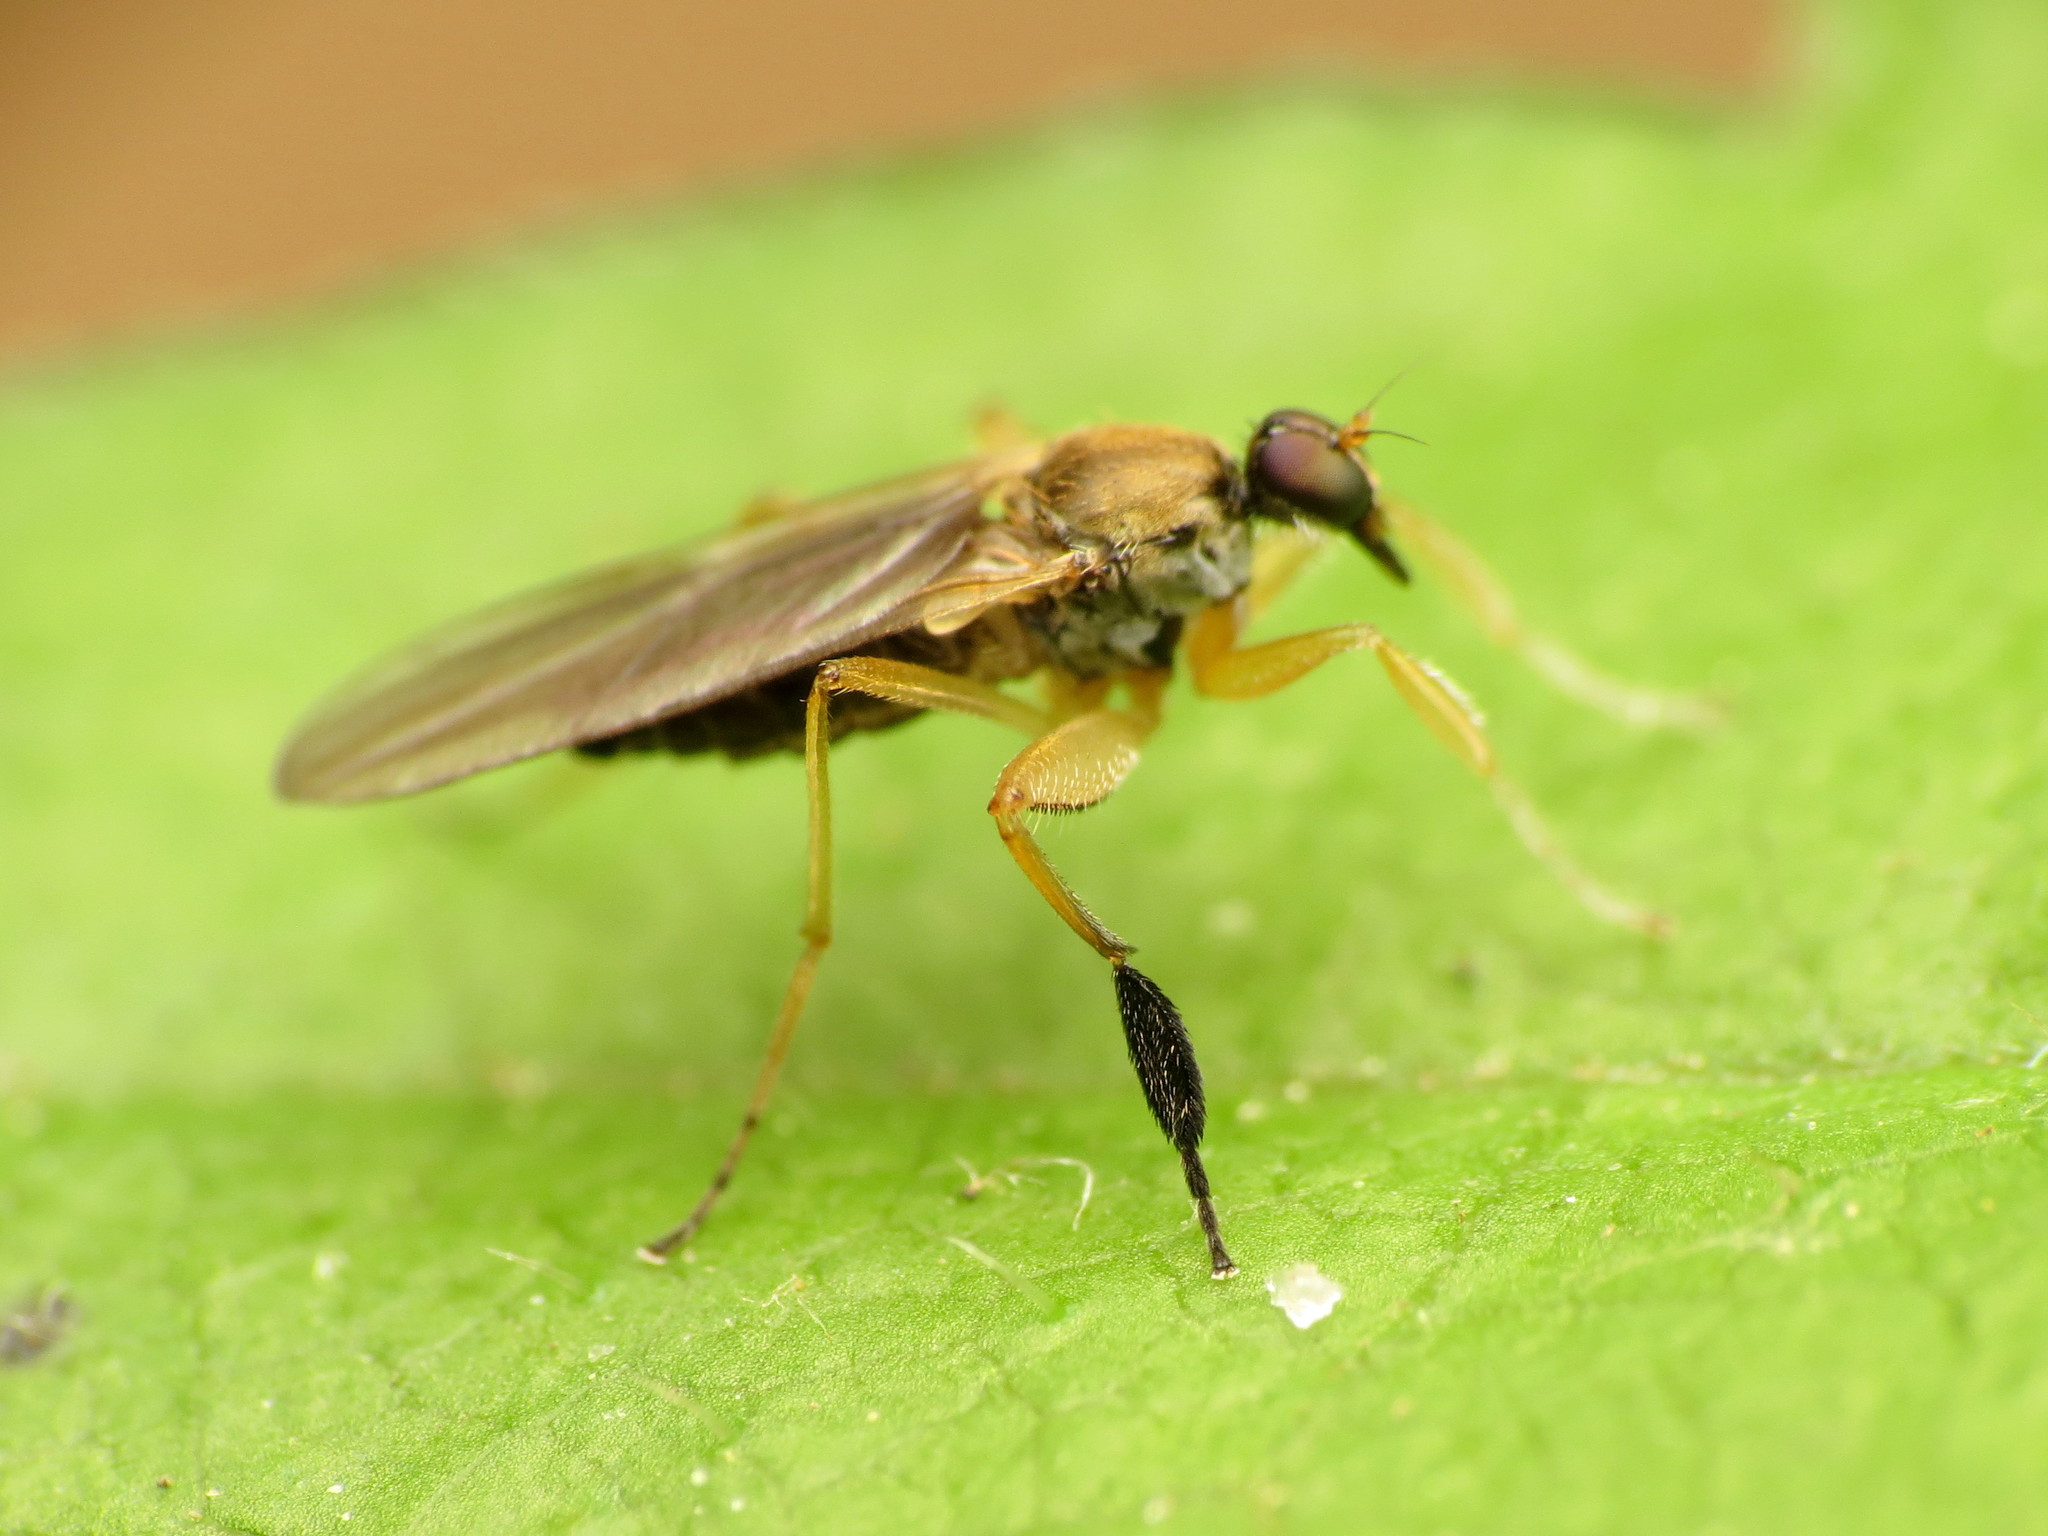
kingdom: Animalia
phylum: Arthropoda
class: Insecta
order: Diptera
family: Hybotidae
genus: Platypalpus
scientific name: Platypalpus discifer
